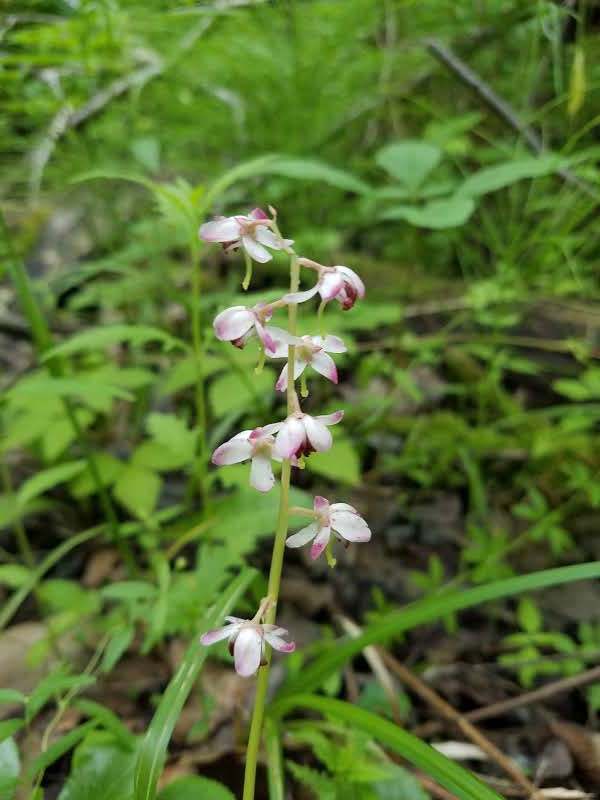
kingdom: Plantae
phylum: Tracheophyta
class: Magnoliopsida
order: Ericales
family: Ericaceae
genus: Pyrola
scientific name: Pyrola asarifolia
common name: Bog wintergreen
